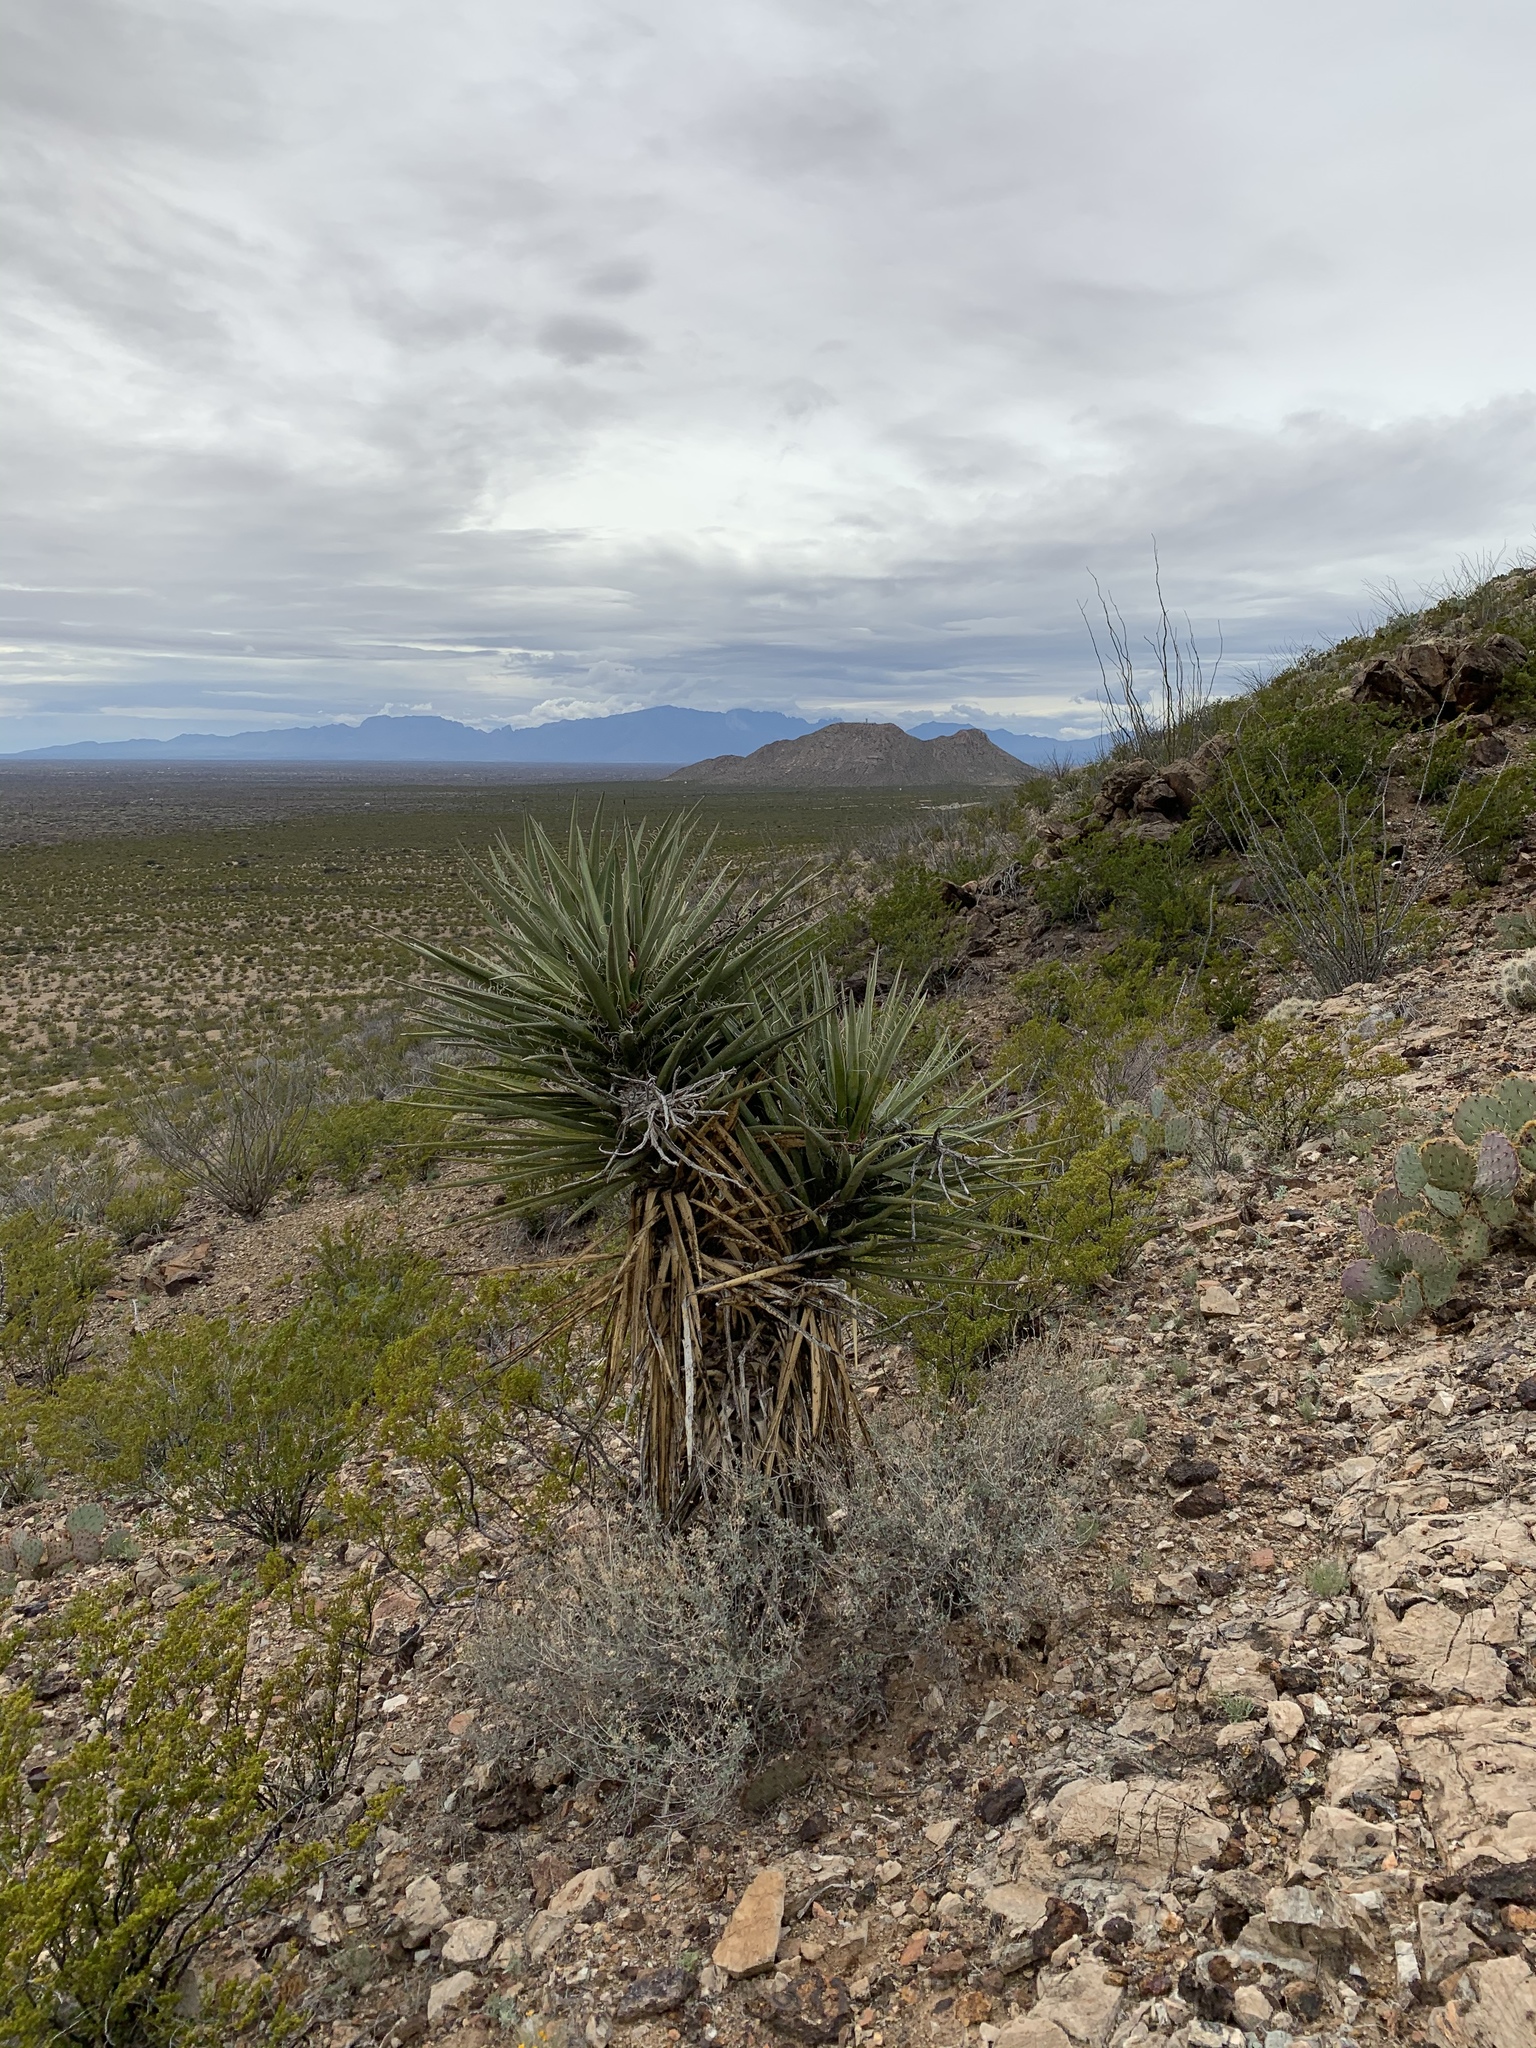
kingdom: Plantae
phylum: Tracheophyta
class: Liliopsida
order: Asparagales
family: Asparagaceae
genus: Yucca
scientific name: Yucca treculiana
